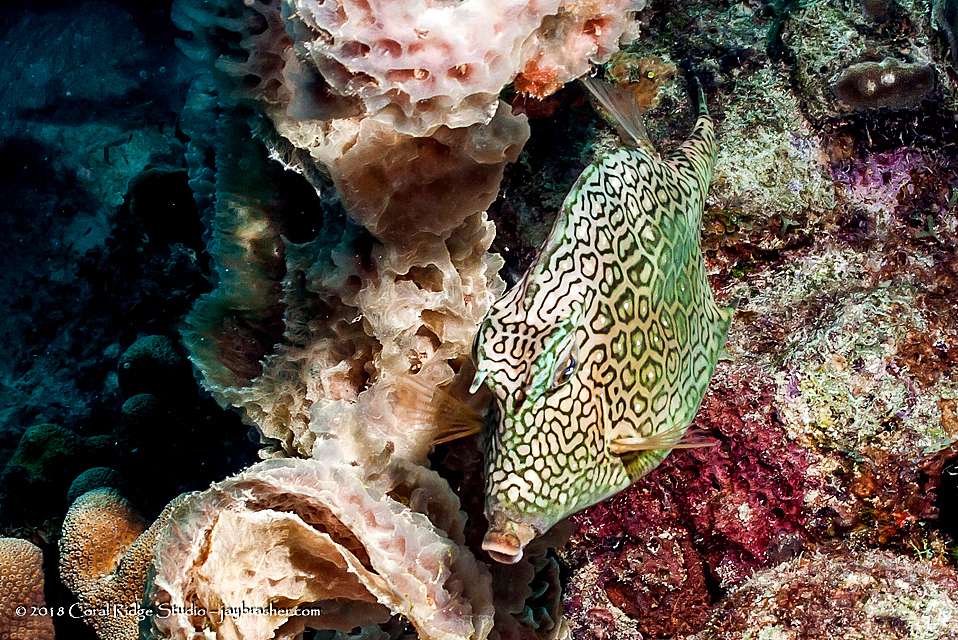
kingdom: Animalia
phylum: Chordata
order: Tetraodontiformes
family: Ostraciidae
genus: Acanthostracion
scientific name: Acanthostracion polygonius
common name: Honeycomb cowfish
